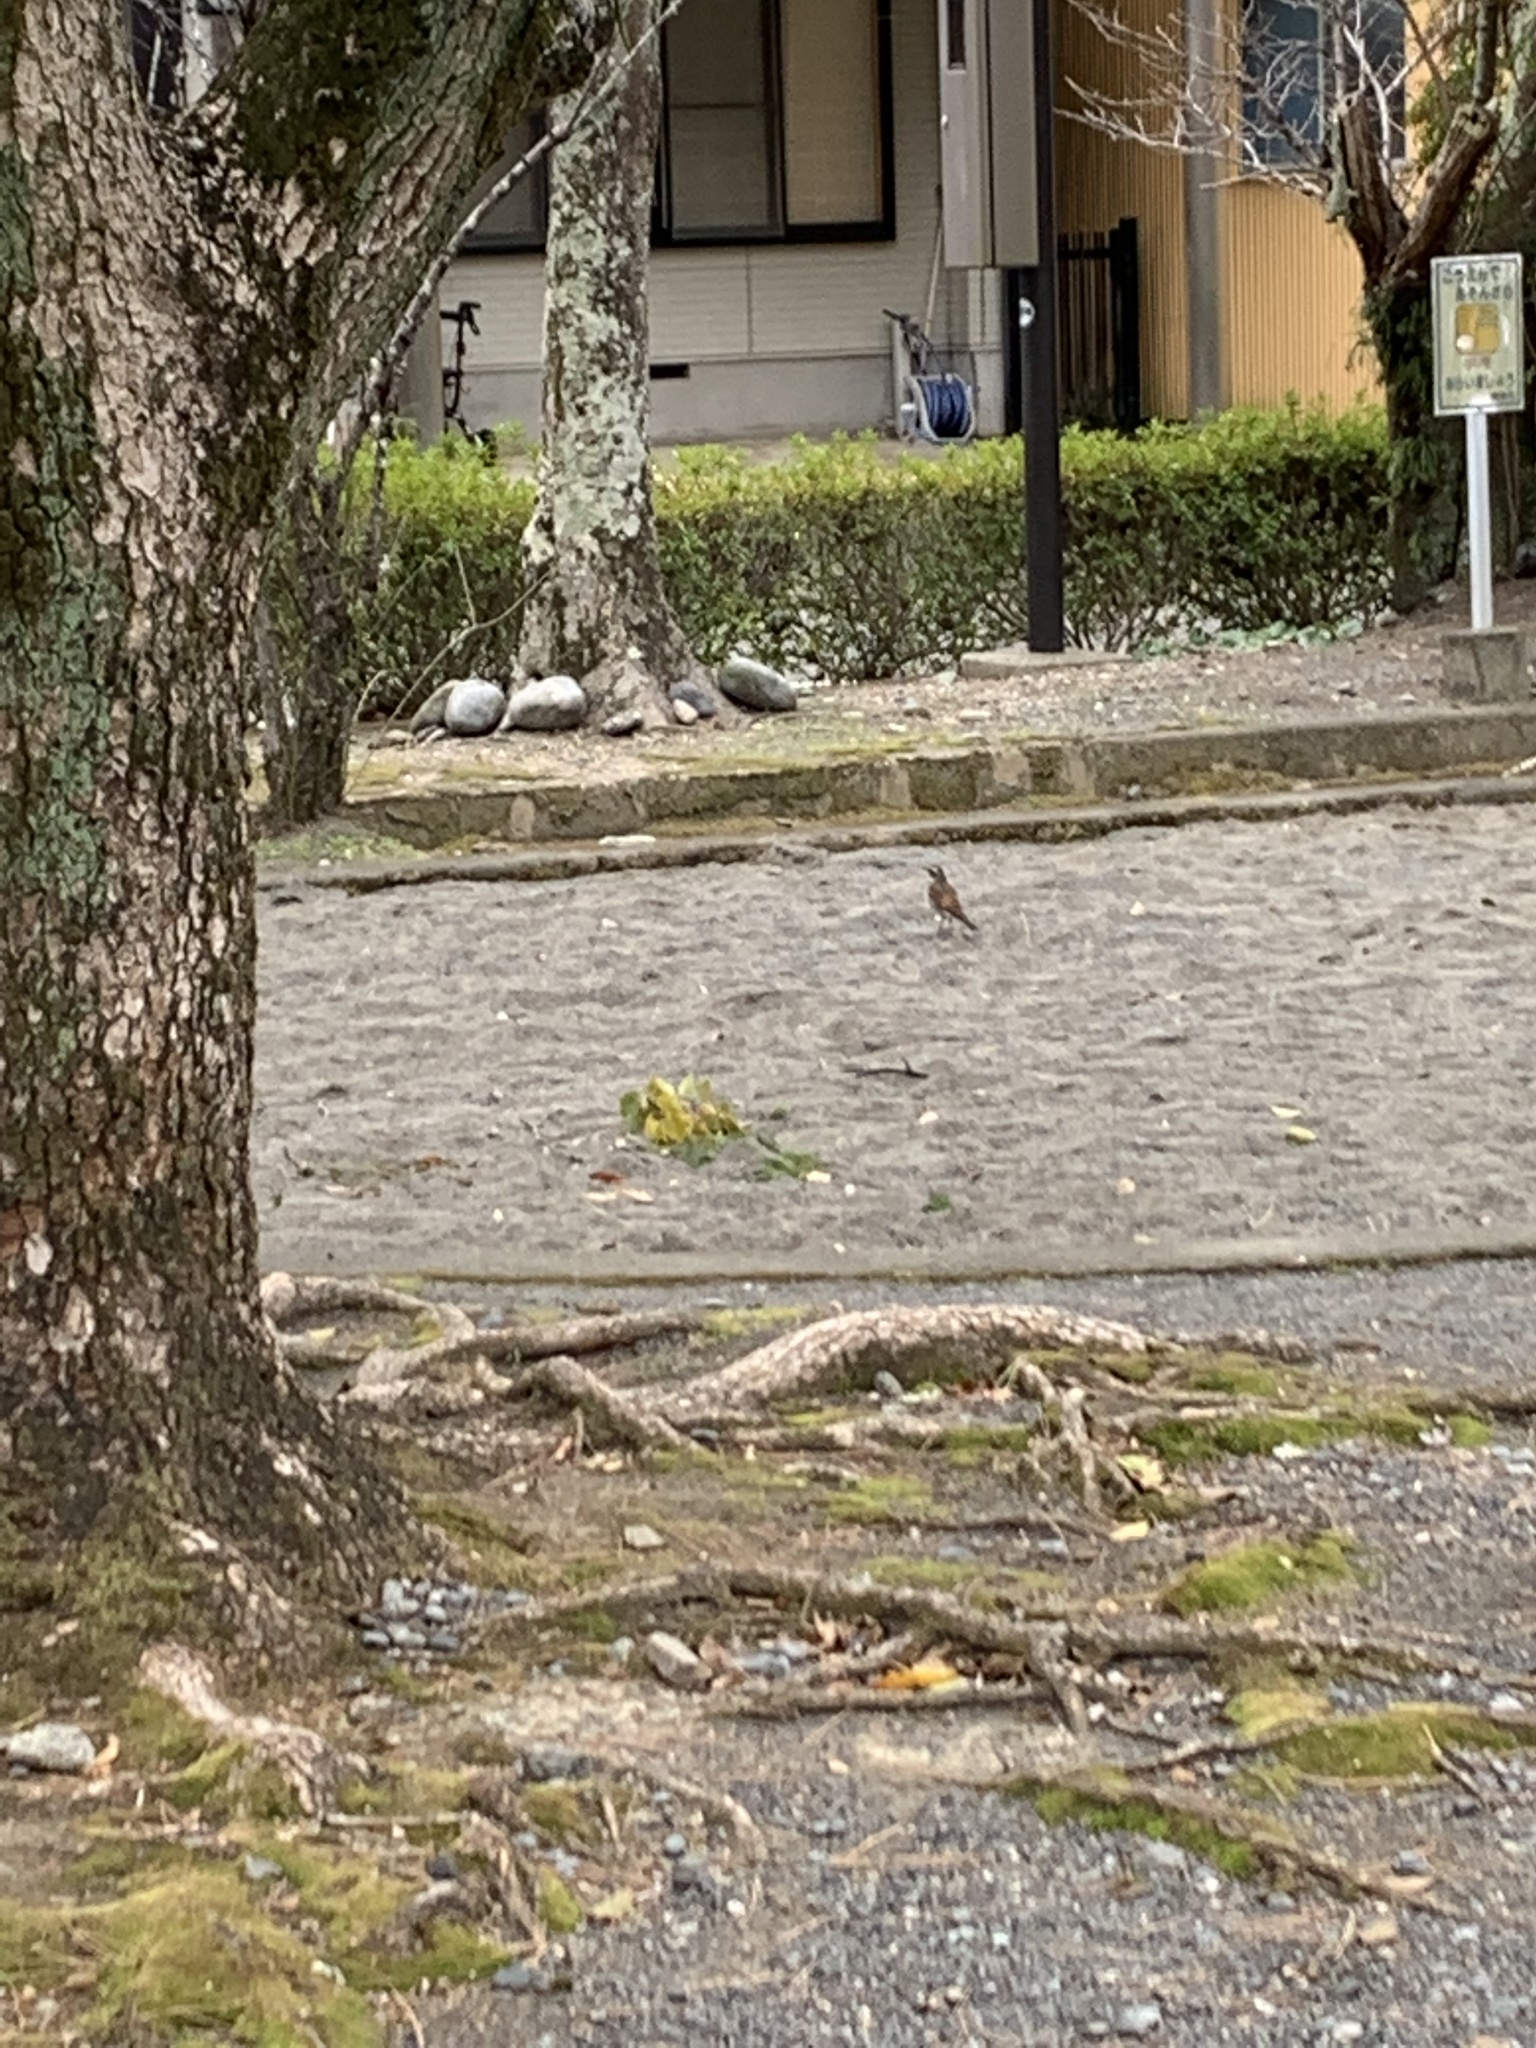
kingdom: Animalia
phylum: Chordata
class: Aves
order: Passeriformes
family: Turdidae
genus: Turdus
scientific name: Turdus eunomus
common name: Dusky thrush
